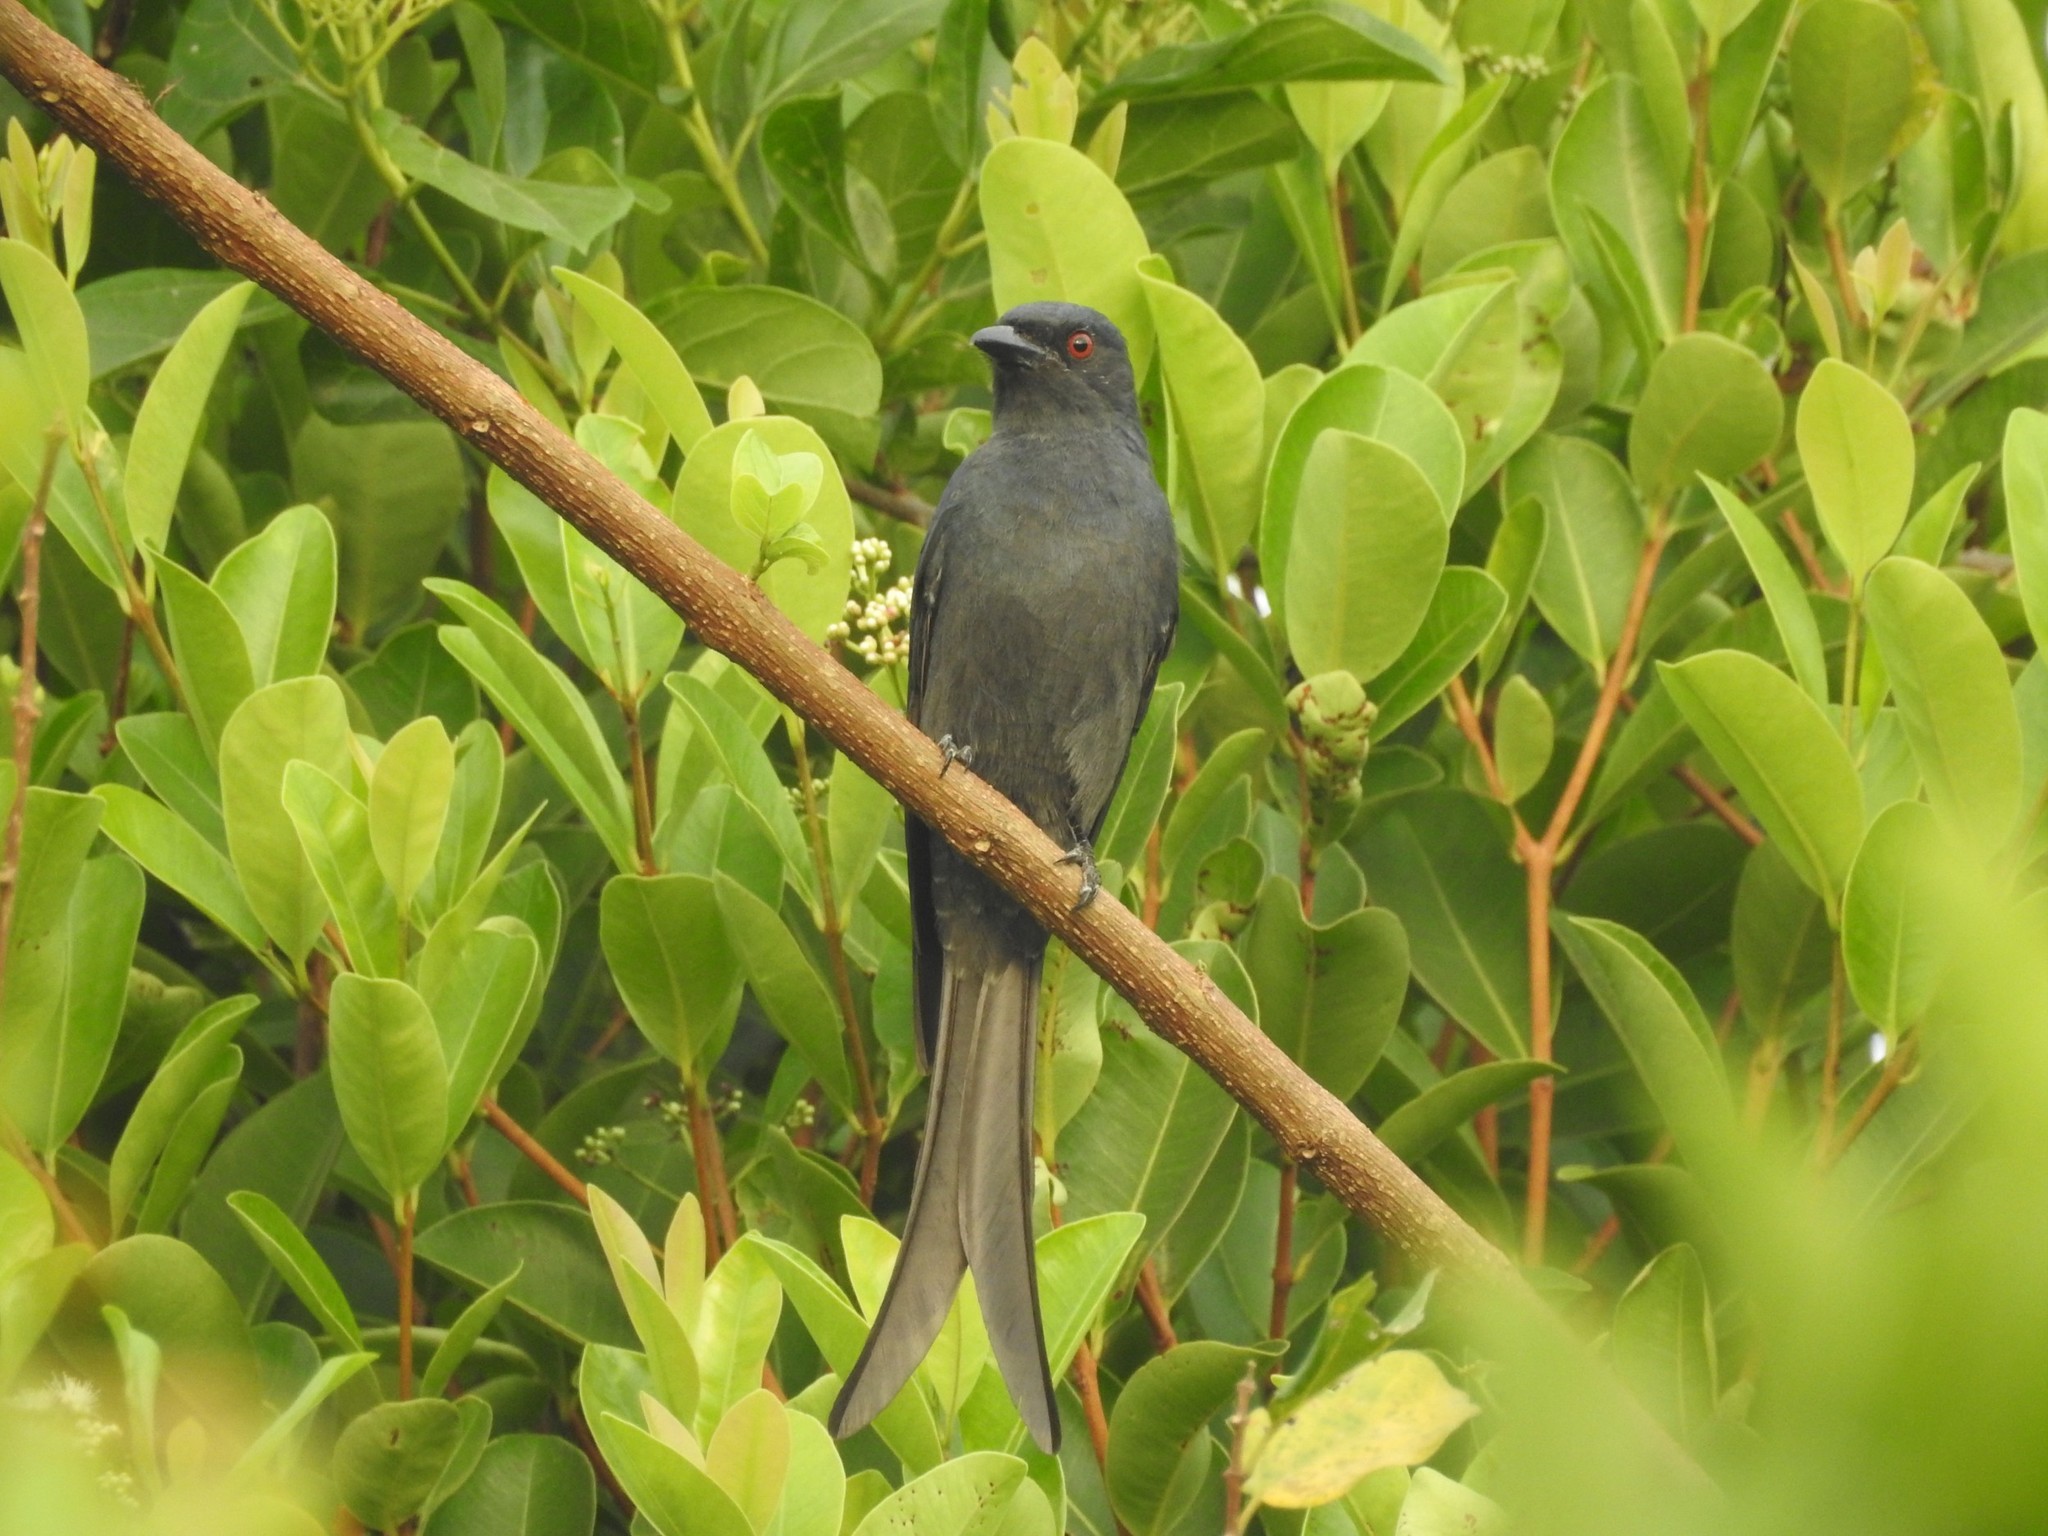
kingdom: Animalia
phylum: Chordata
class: Aves
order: Passeriformes
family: Dicruridae
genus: Dicrurus
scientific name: Dicrurus leucophaeus
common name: Ashy drongo
